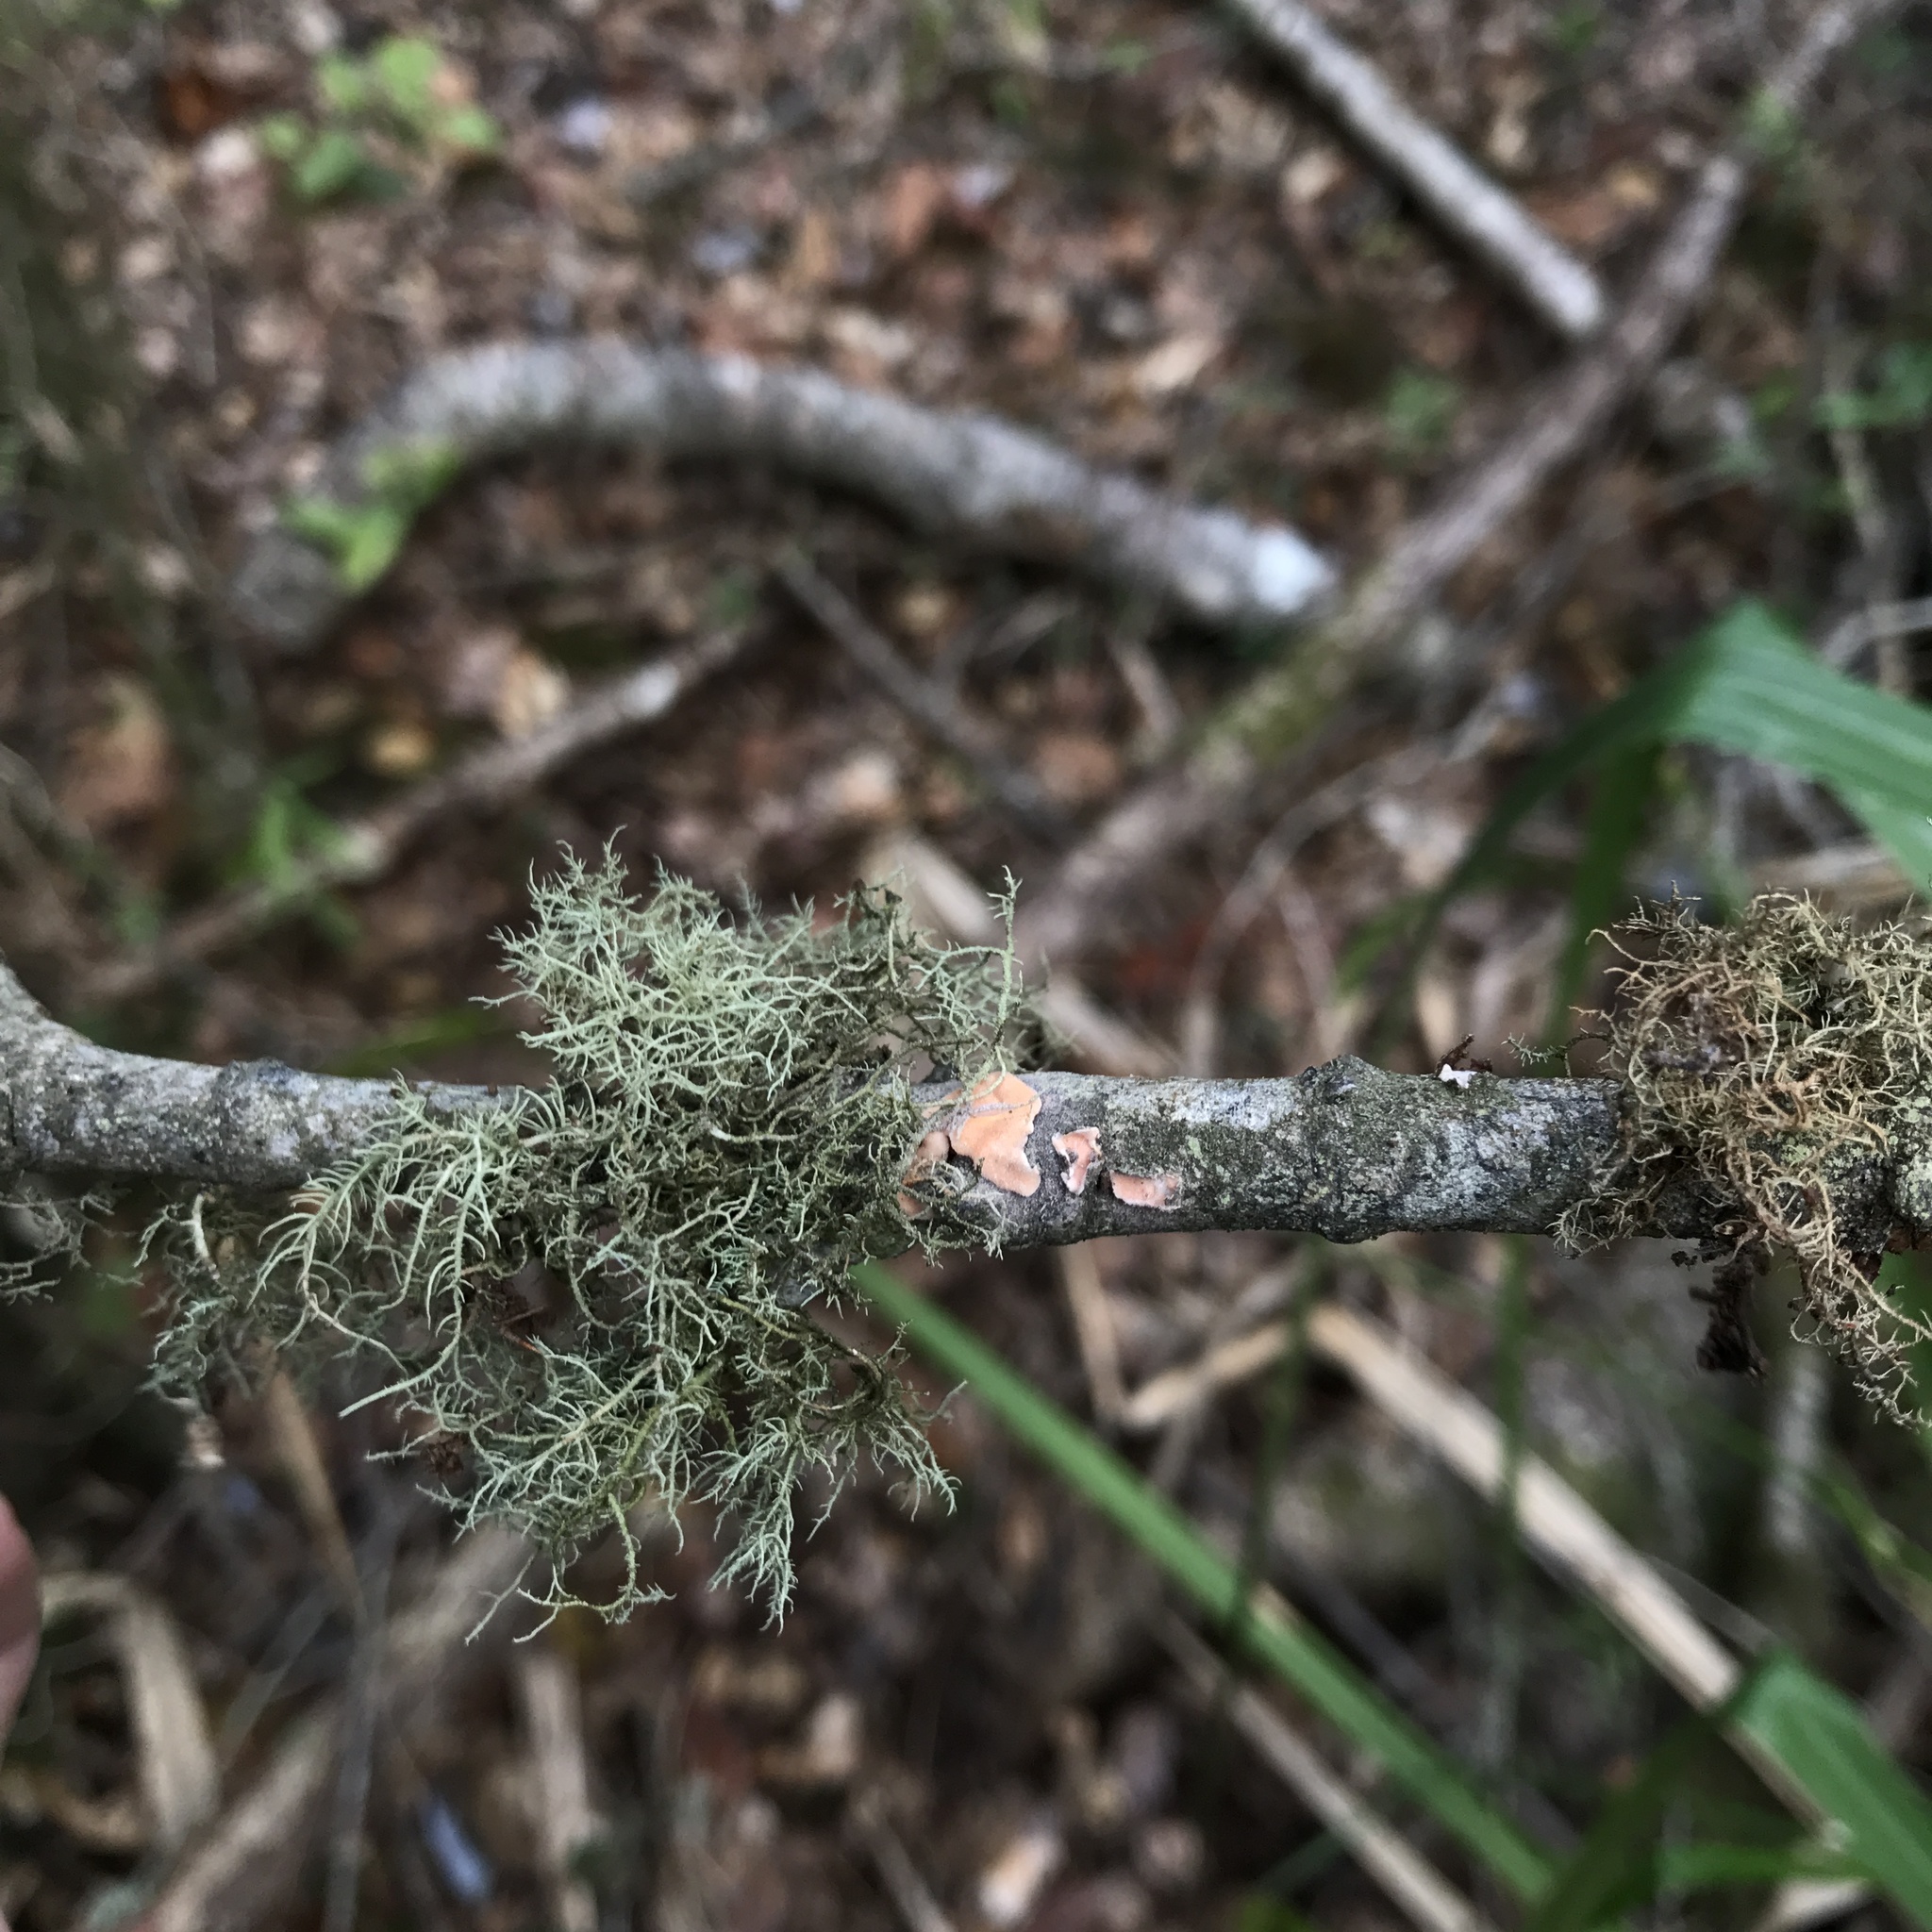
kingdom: Fungi
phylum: Basidiomycota
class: Agaricomycetes
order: Russulales
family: Stereaceae
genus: Gloeosoma
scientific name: Gloeosoma decorticans
